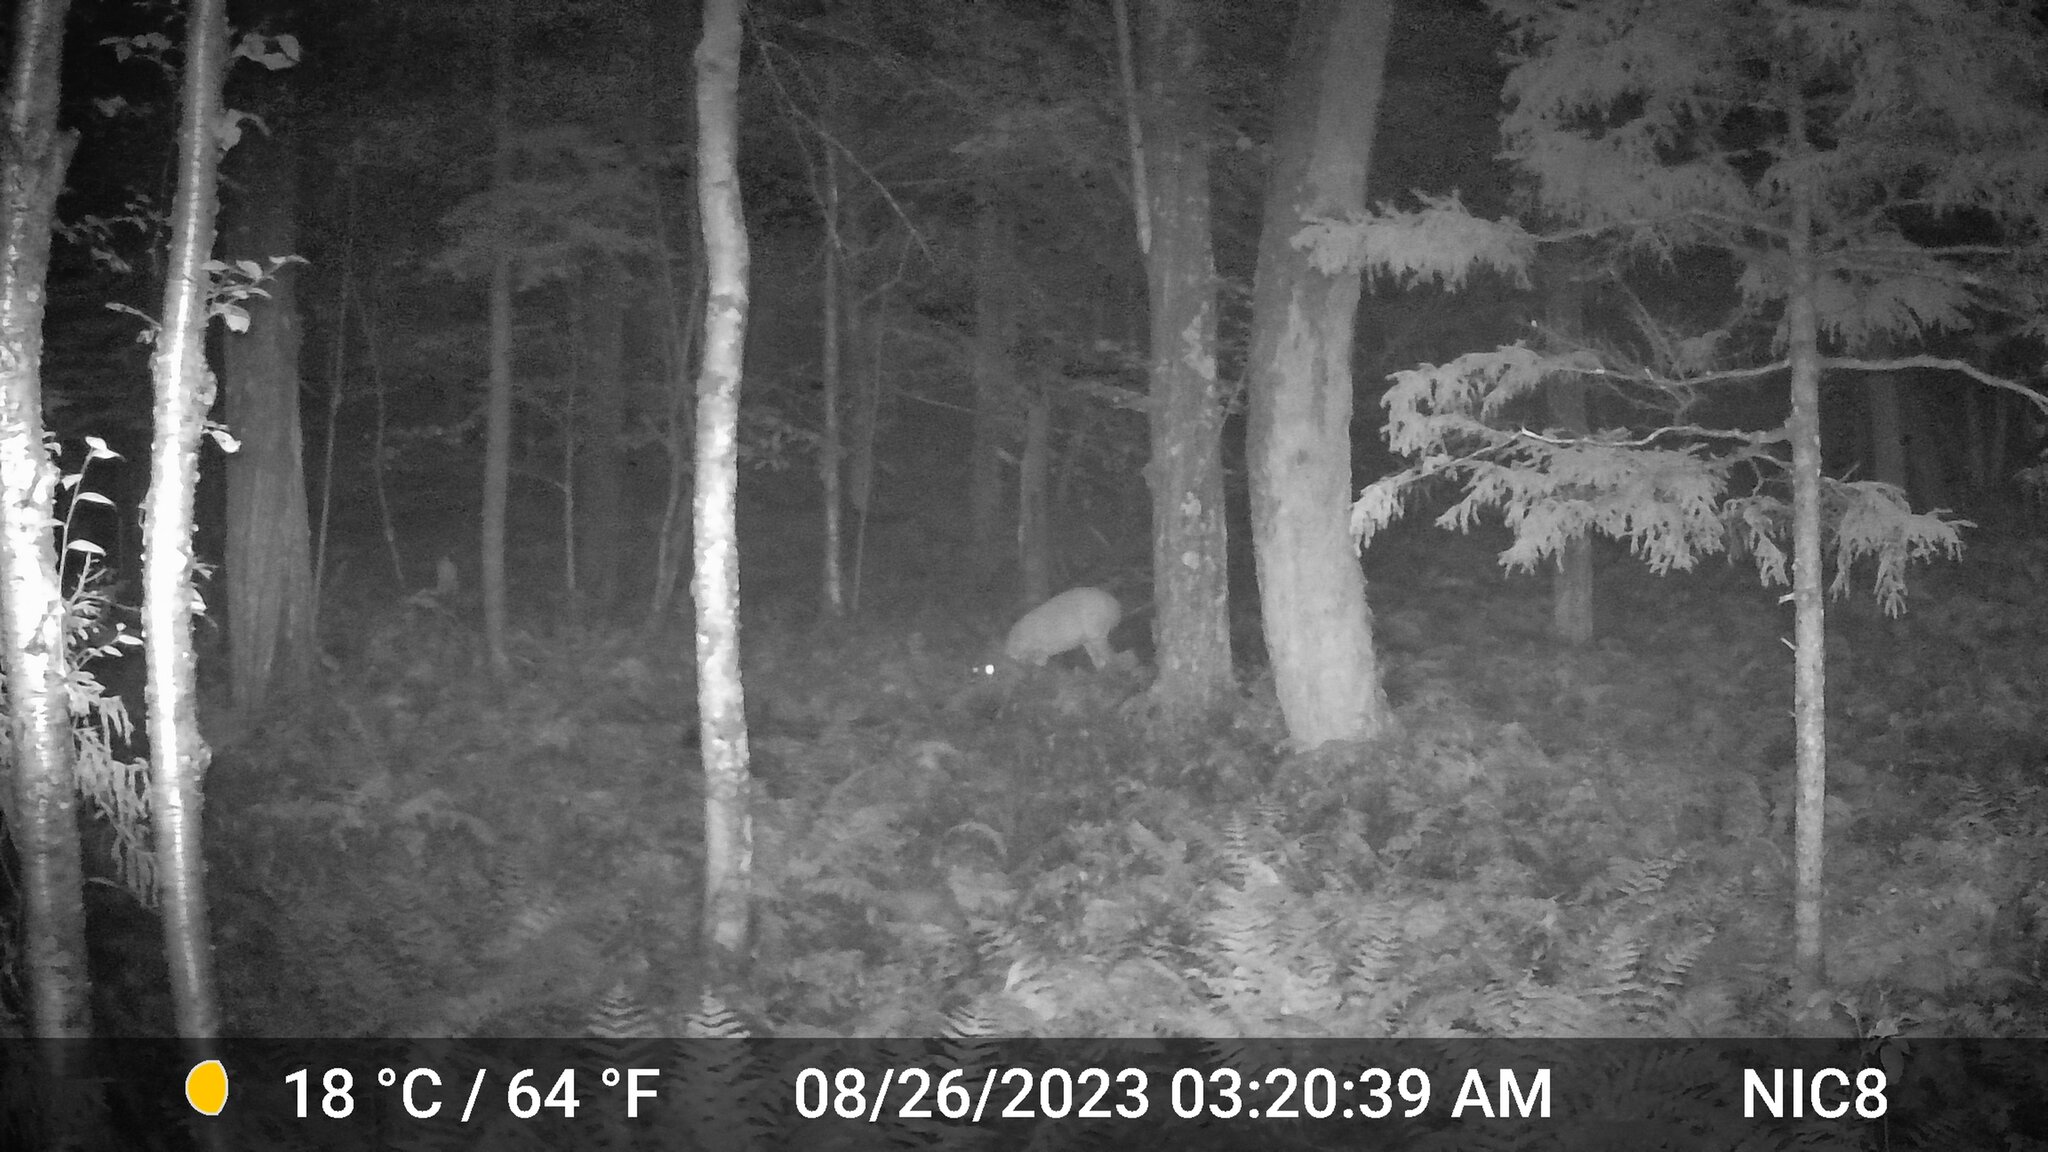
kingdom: Animalia
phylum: Chordata
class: Mammalia
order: Artiodactyla
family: Cervidae
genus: Odocoileus
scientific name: Odocoileus virginianus
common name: White-tailed deer
